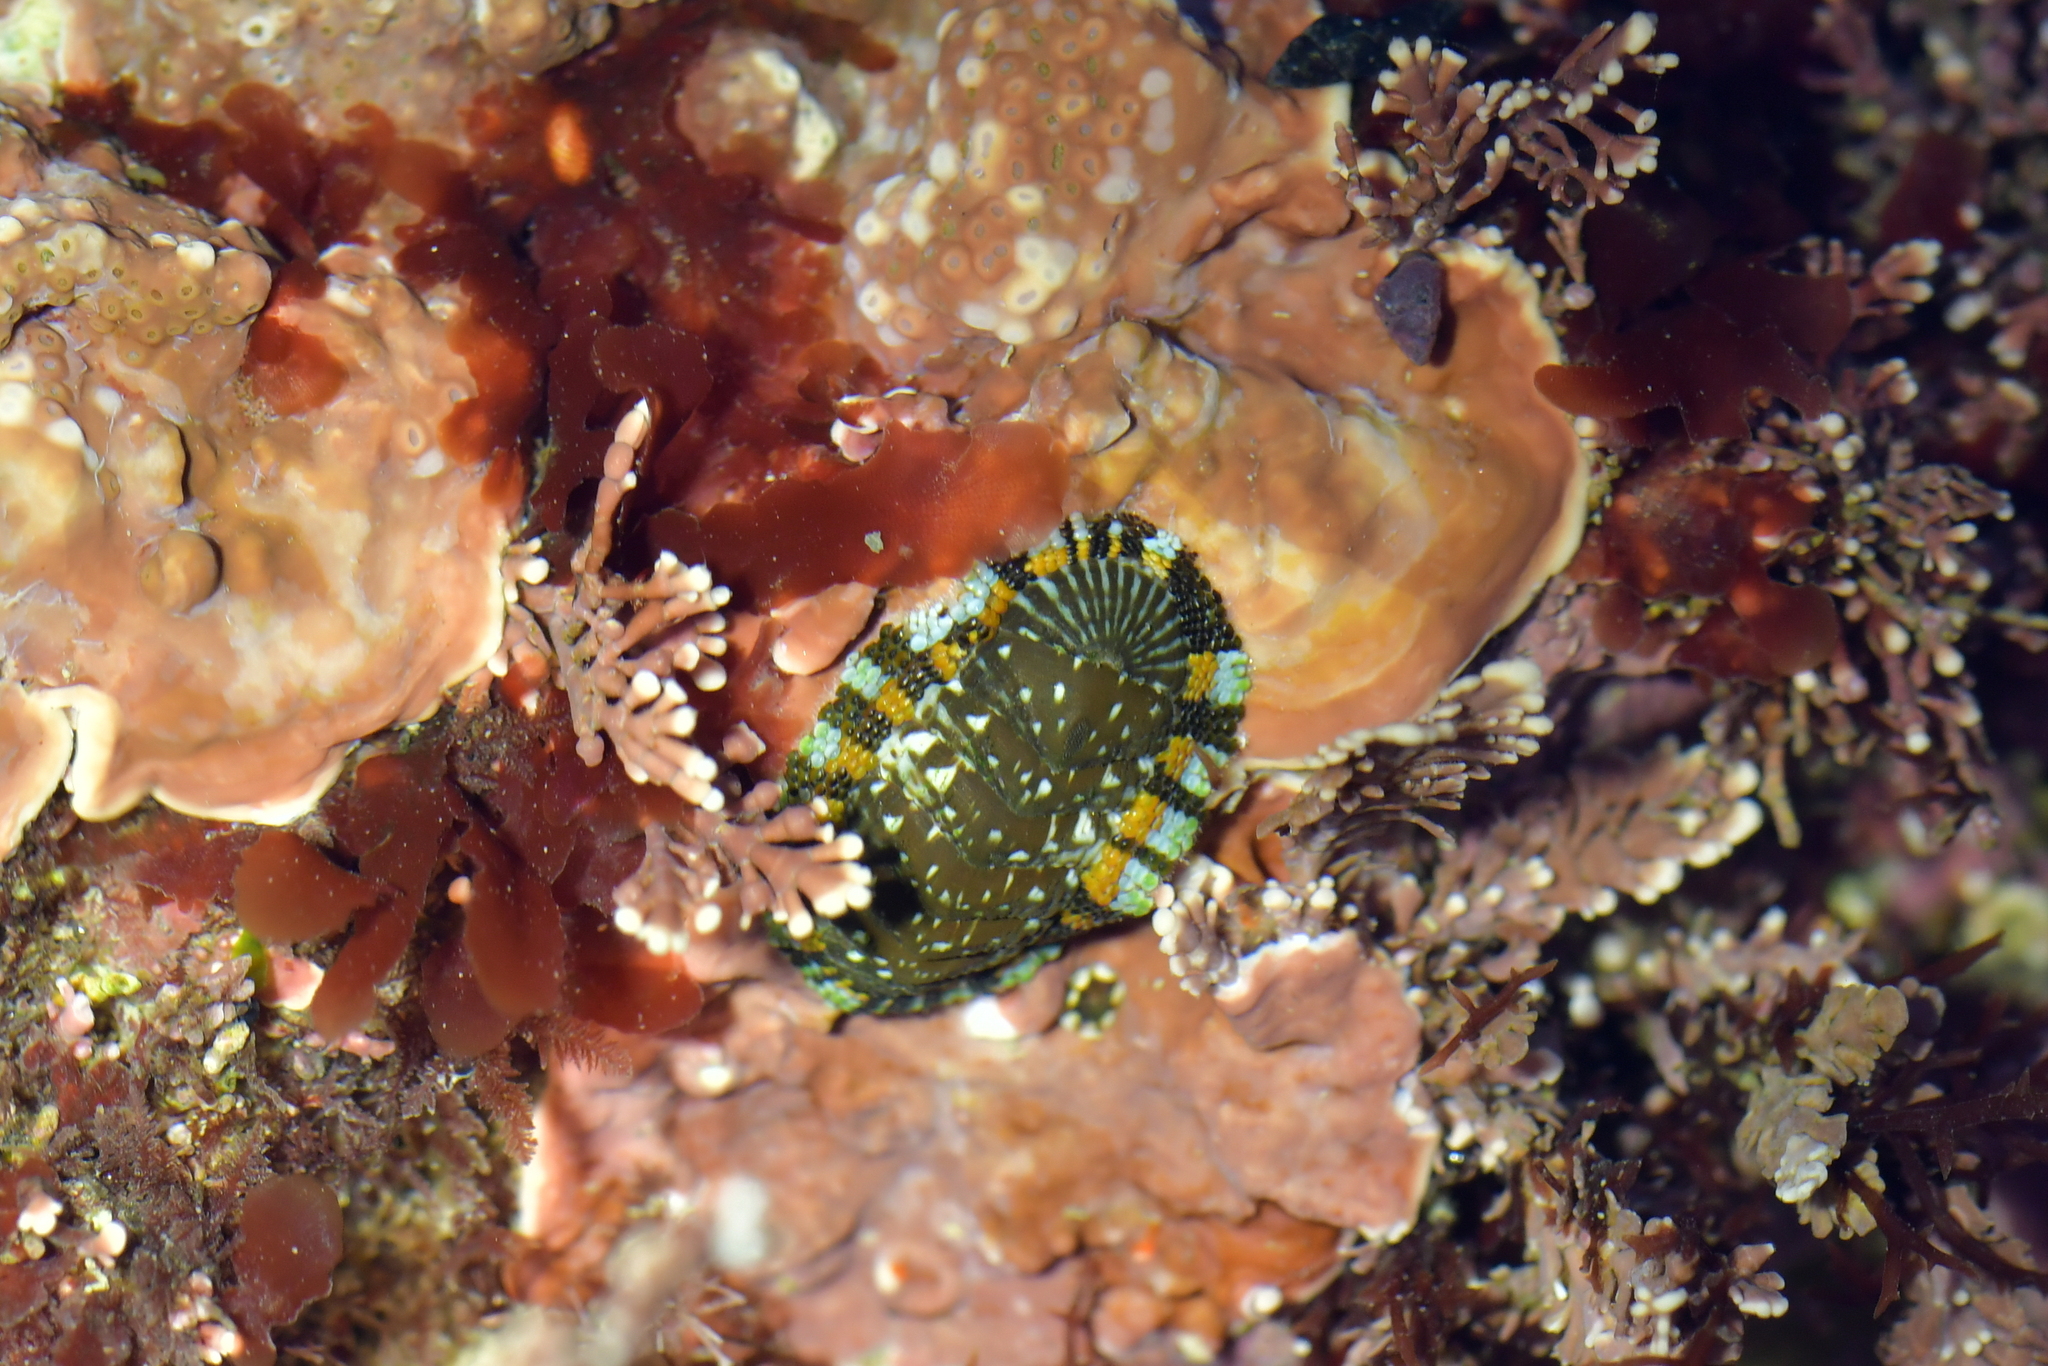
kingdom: Animalia
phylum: Mollusca
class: Polyplacophora
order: Chitonida
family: Chitonidae
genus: Sypharochiton
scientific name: Sypharochiton sinclairi
